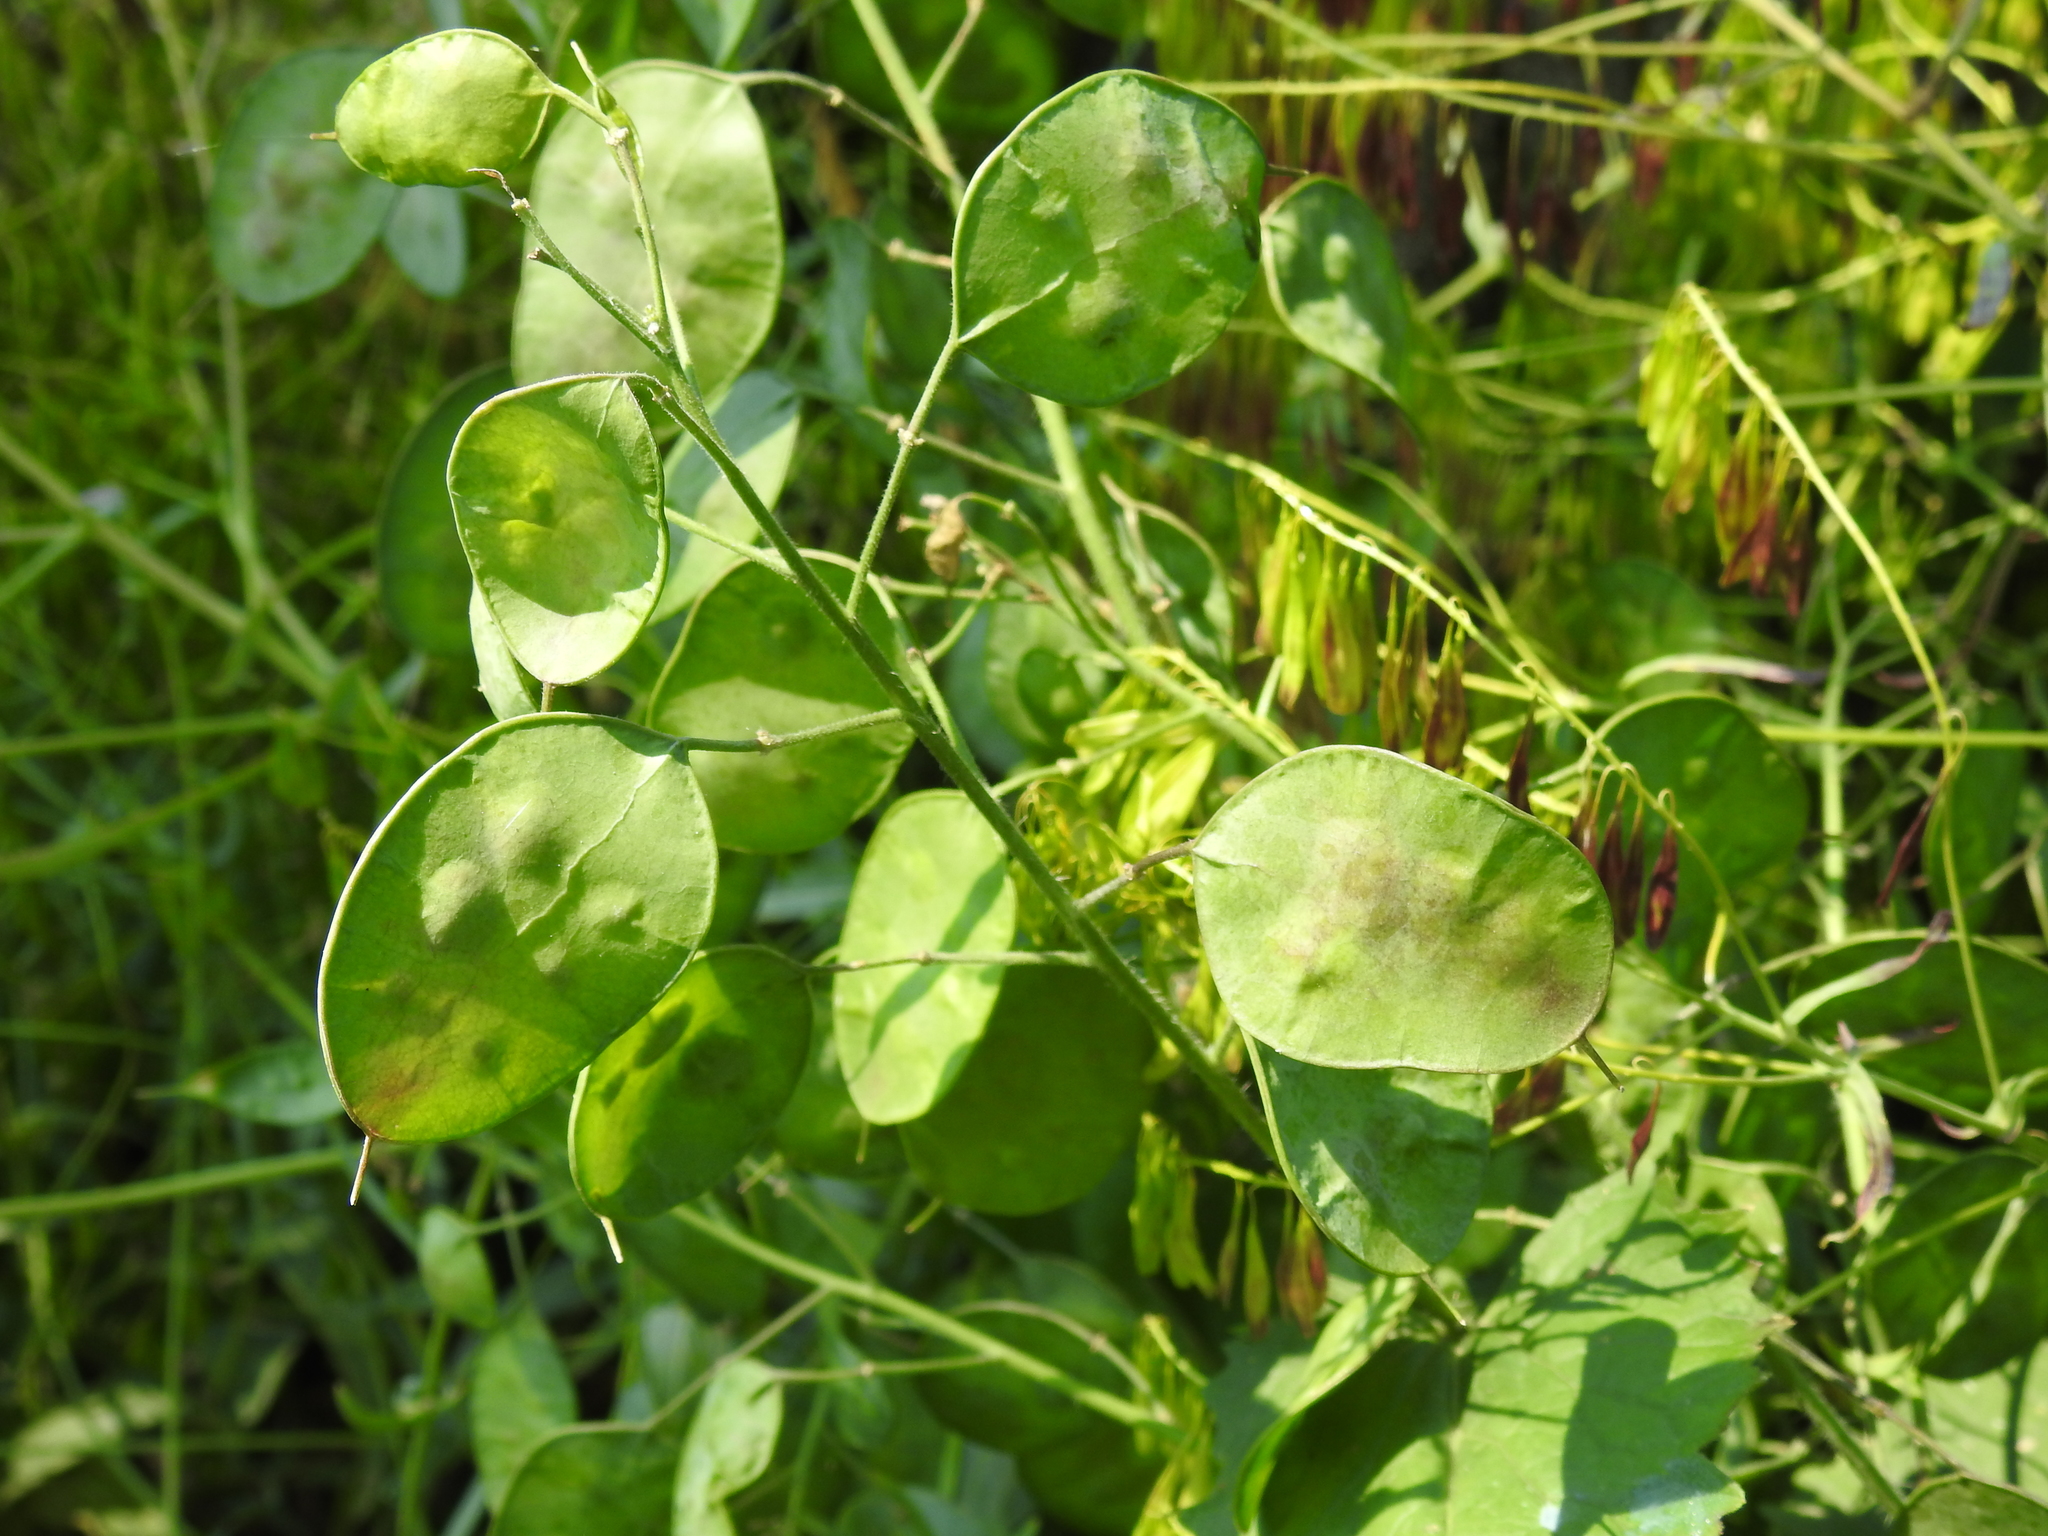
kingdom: Plantae
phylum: Tracheophyta
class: Magnoliopsida
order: Brassicales
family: Brassicaceae
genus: Lunaria
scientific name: Lunaria annua
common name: Honesty
